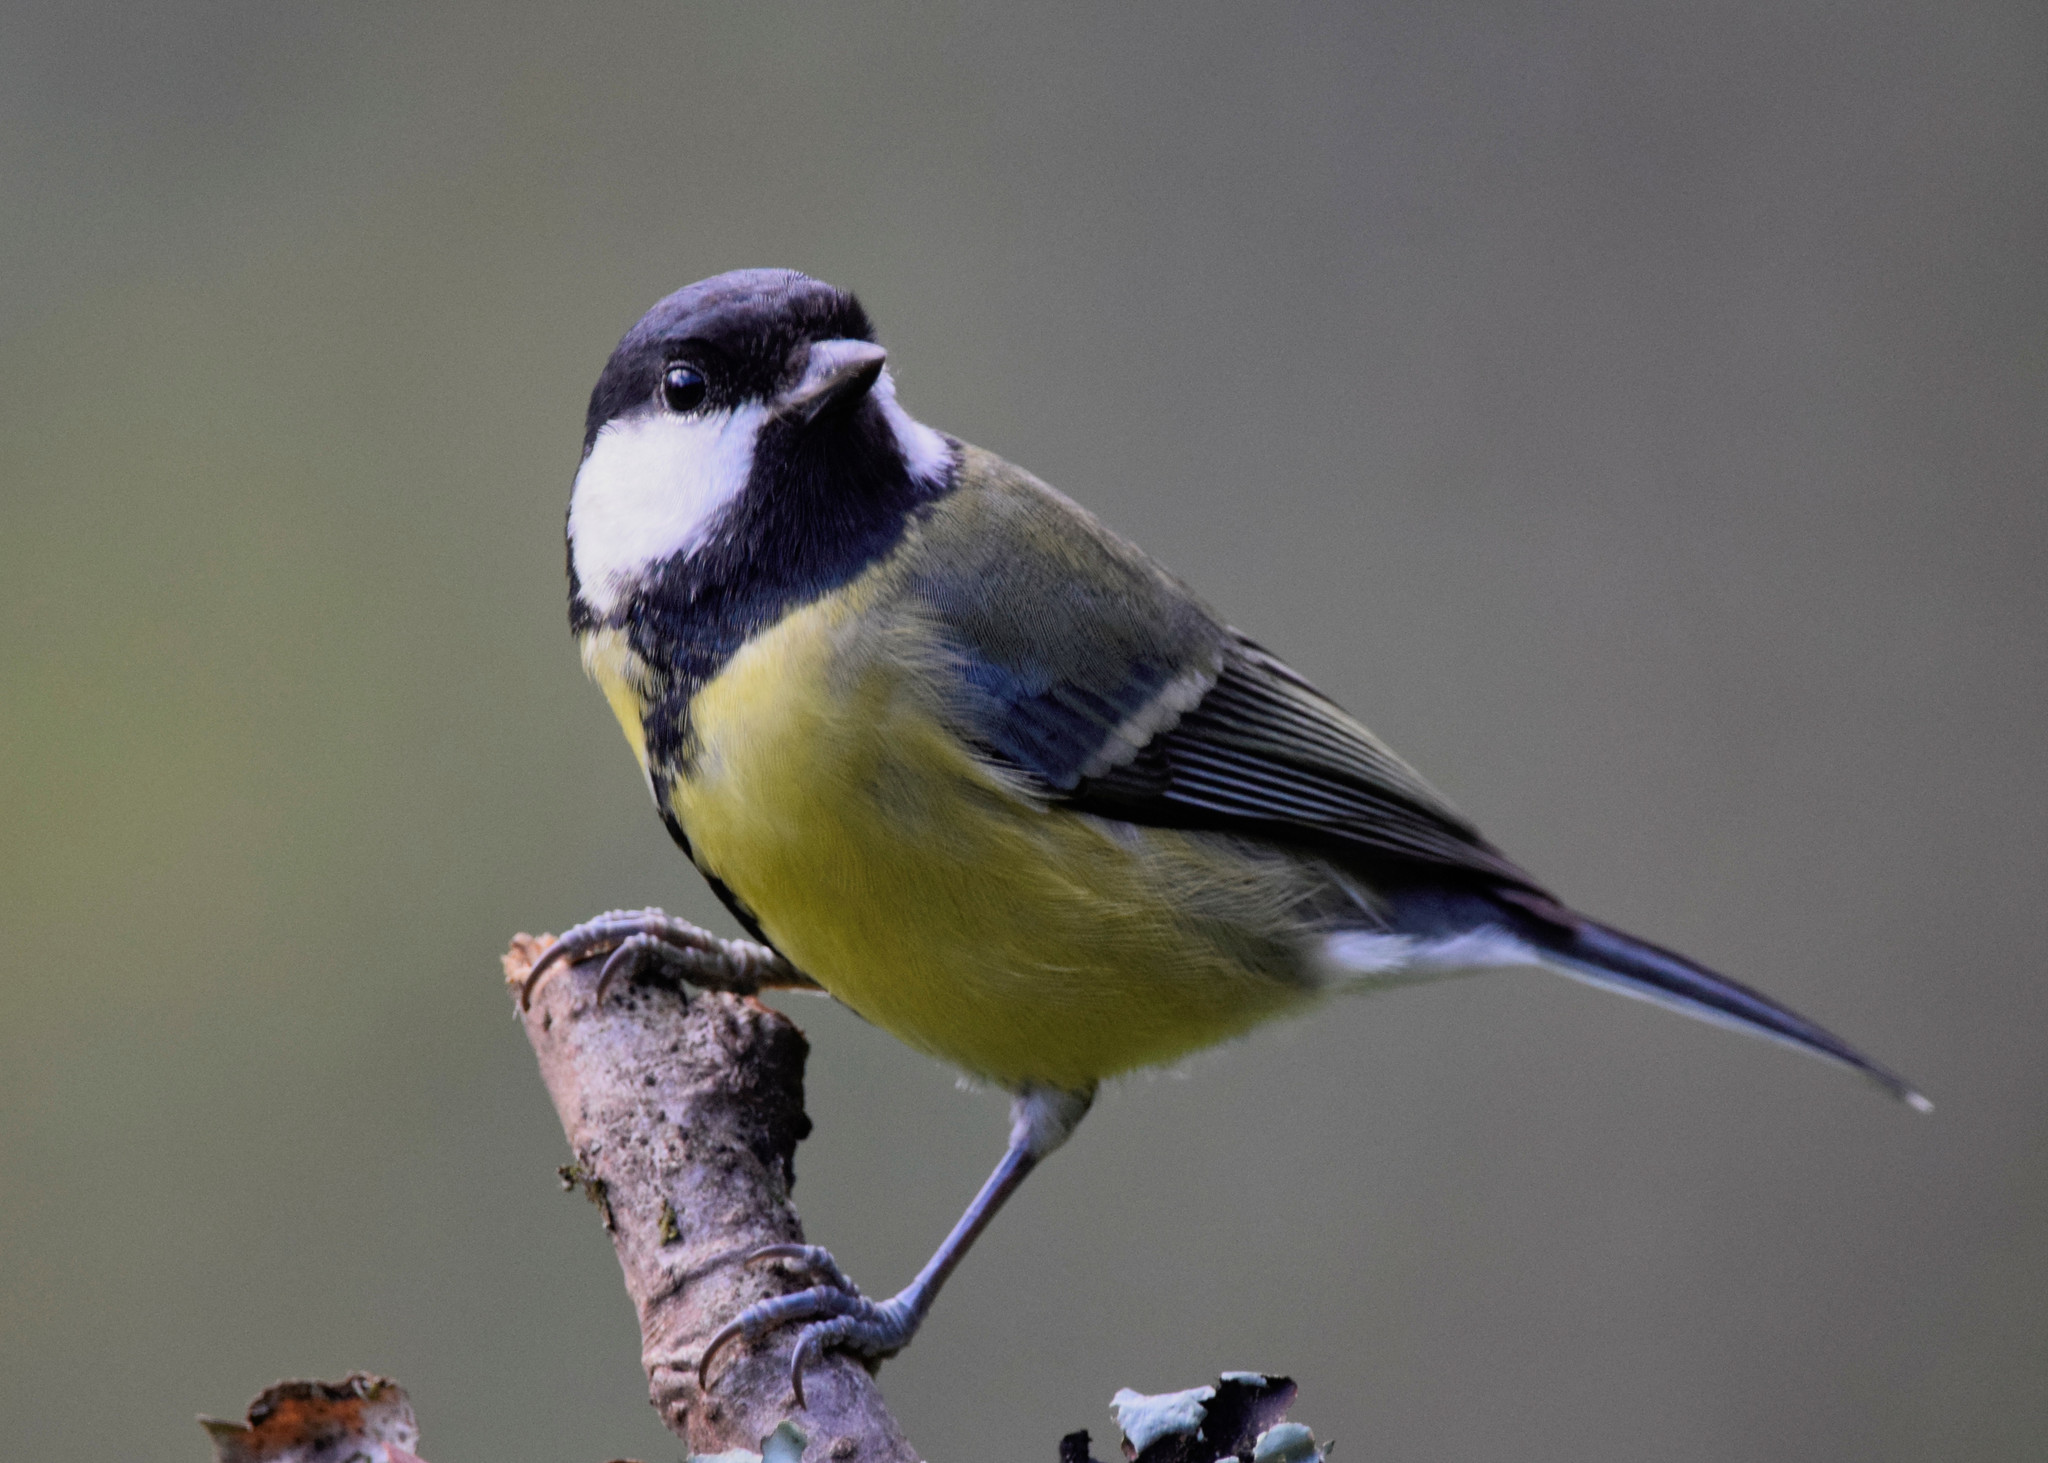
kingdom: Animalia
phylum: Chordata
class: Aves
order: Passeriformes
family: Paridae
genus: Parus
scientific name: Parus major
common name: Great tit
